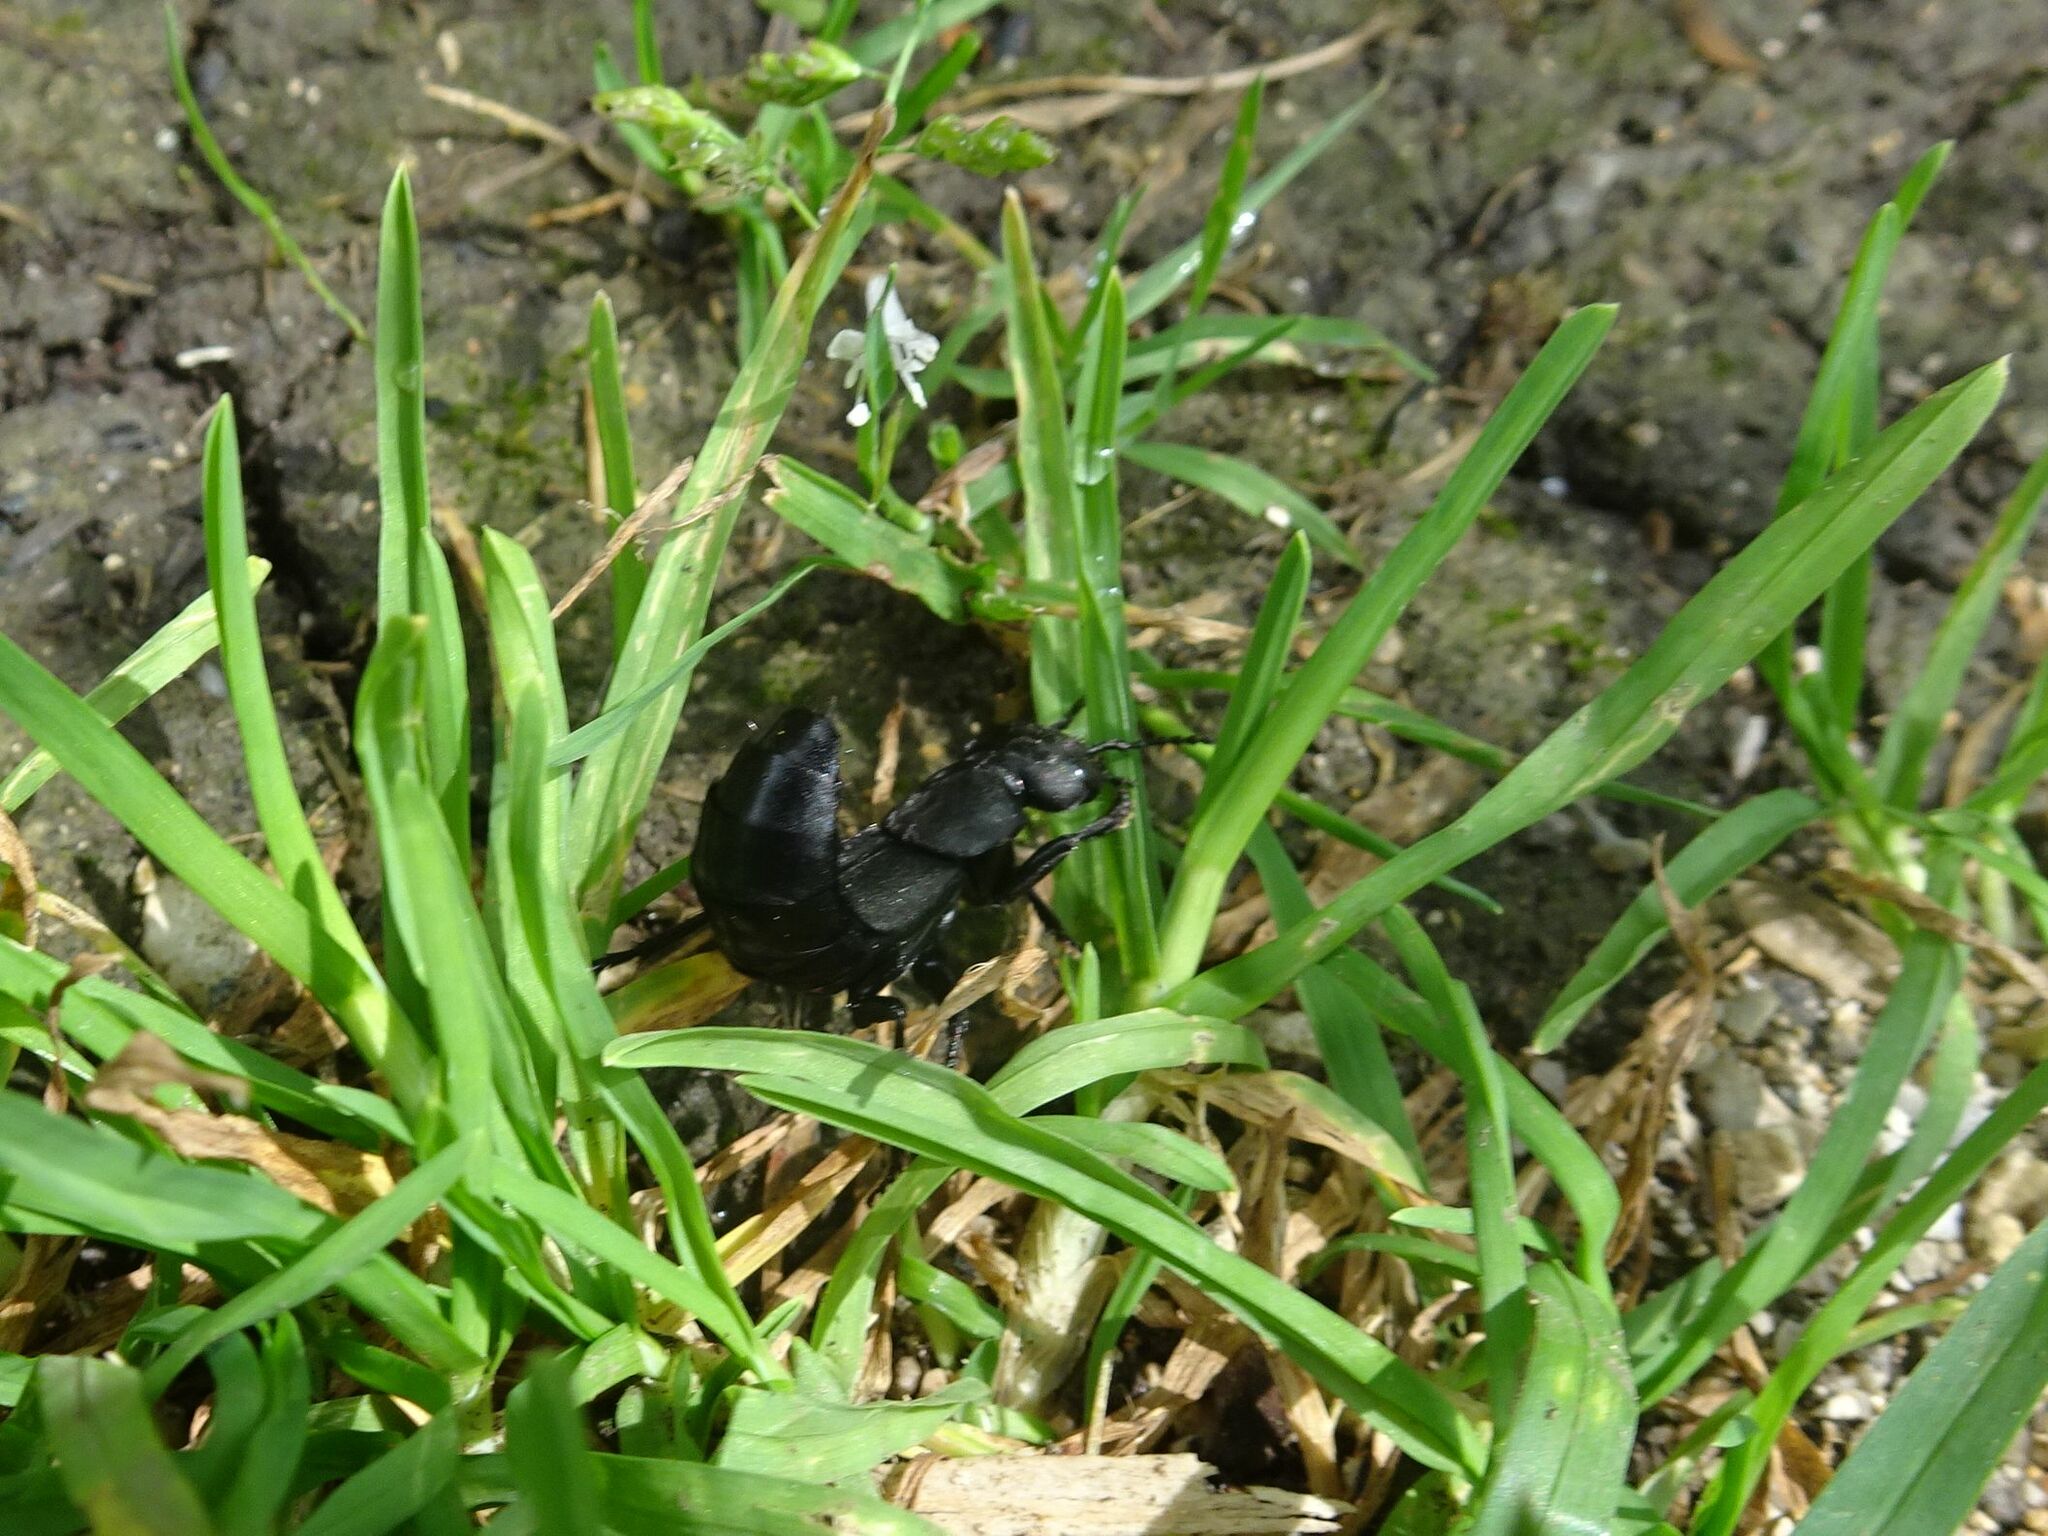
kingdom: Animalia
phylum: Arthropoda
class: Insecta
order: Coleoptera
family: Staphylinidae
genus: Ocypus
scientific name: Ocypus olens
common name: Devil's coach-horse
